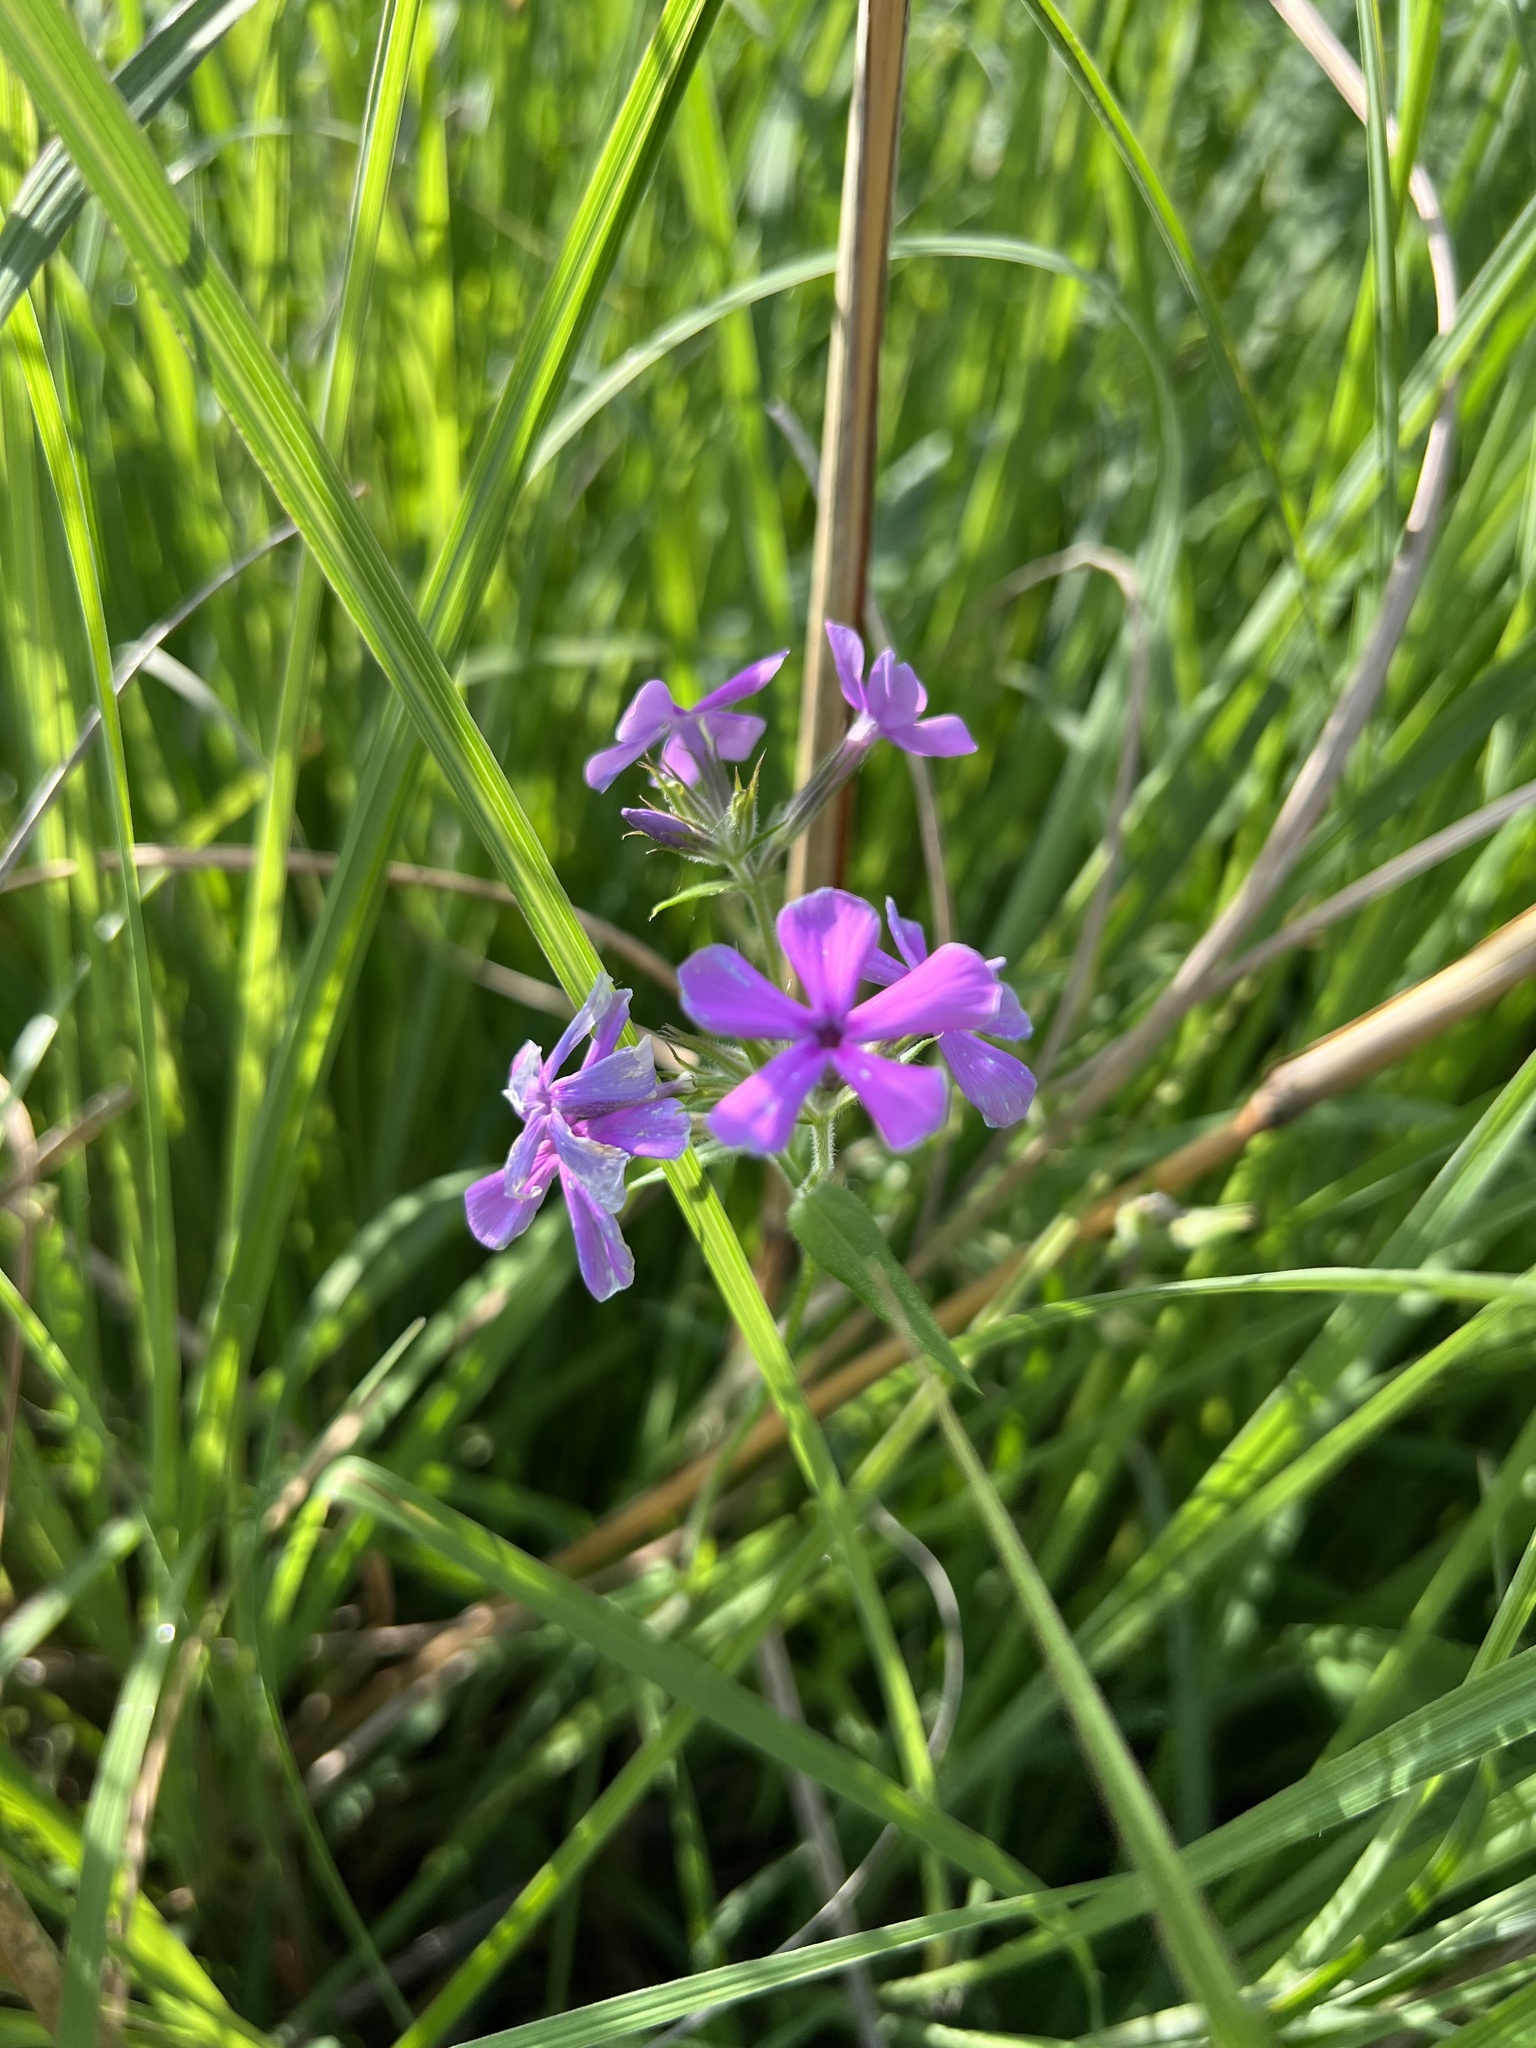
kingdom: Plantae
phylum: Tracheophyta
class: Magnoliopsida
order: Ericales
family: Polemoniaceae
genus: Phlox
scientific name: Phlox pilosa
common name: Prairie phlox
